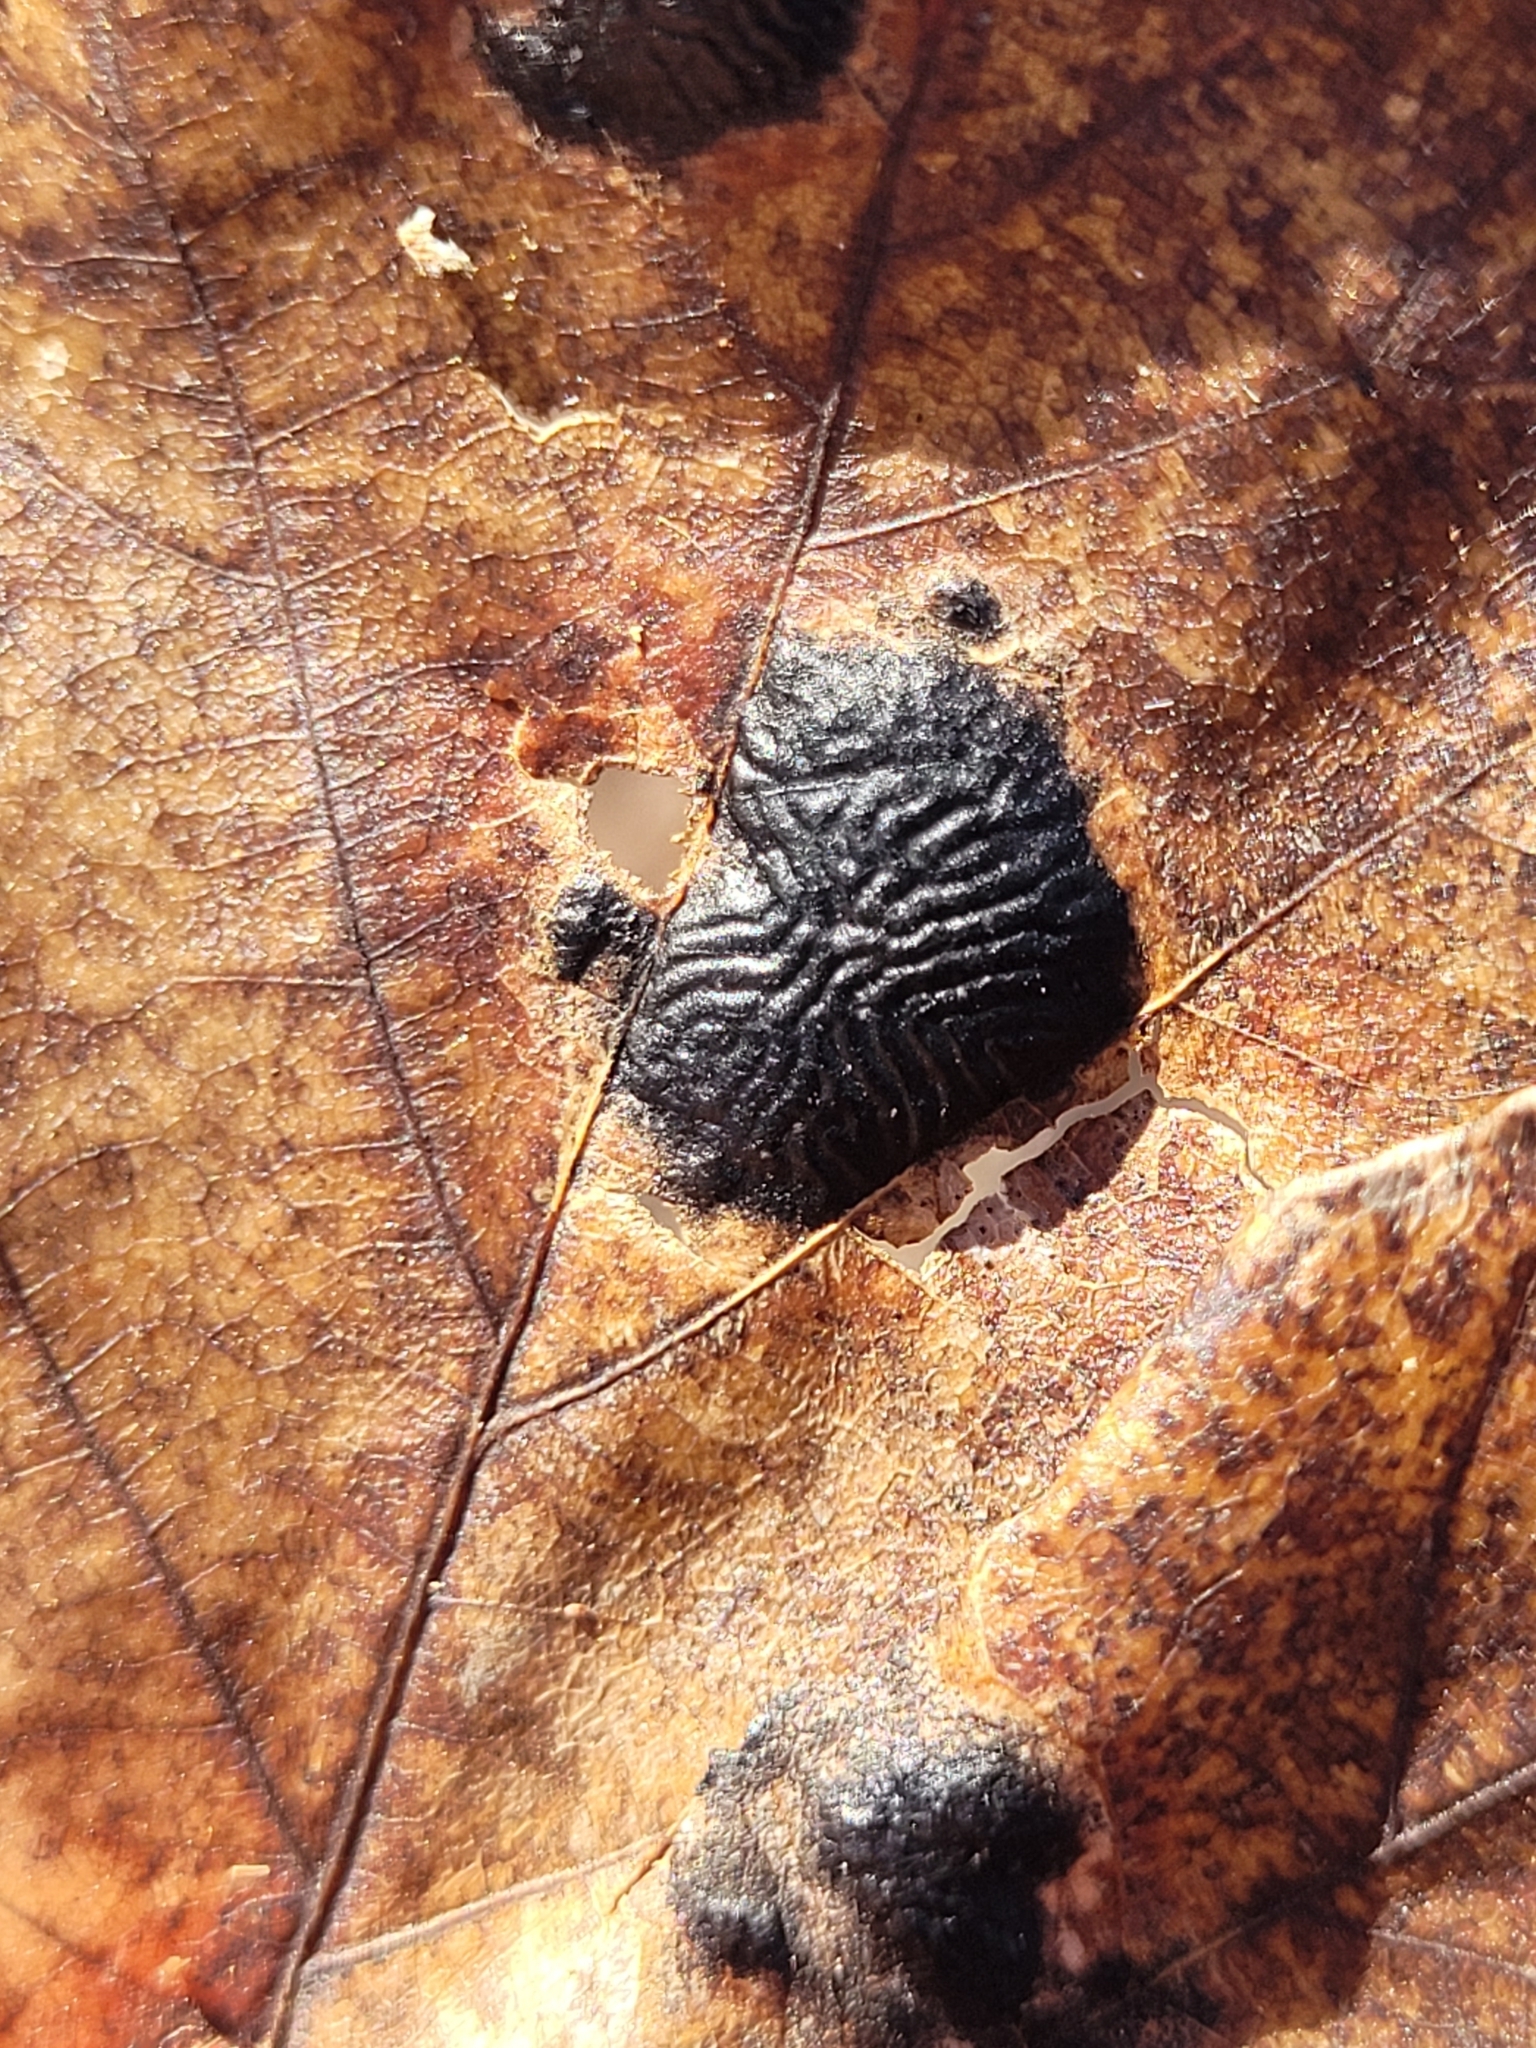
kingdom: Fungi
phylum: Ascomycota
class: Leotiomycetes
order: Rhytismatales
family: Rhytismataceae
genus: Rhytisma
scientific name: Rhytisma americanum
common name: American tar spot
